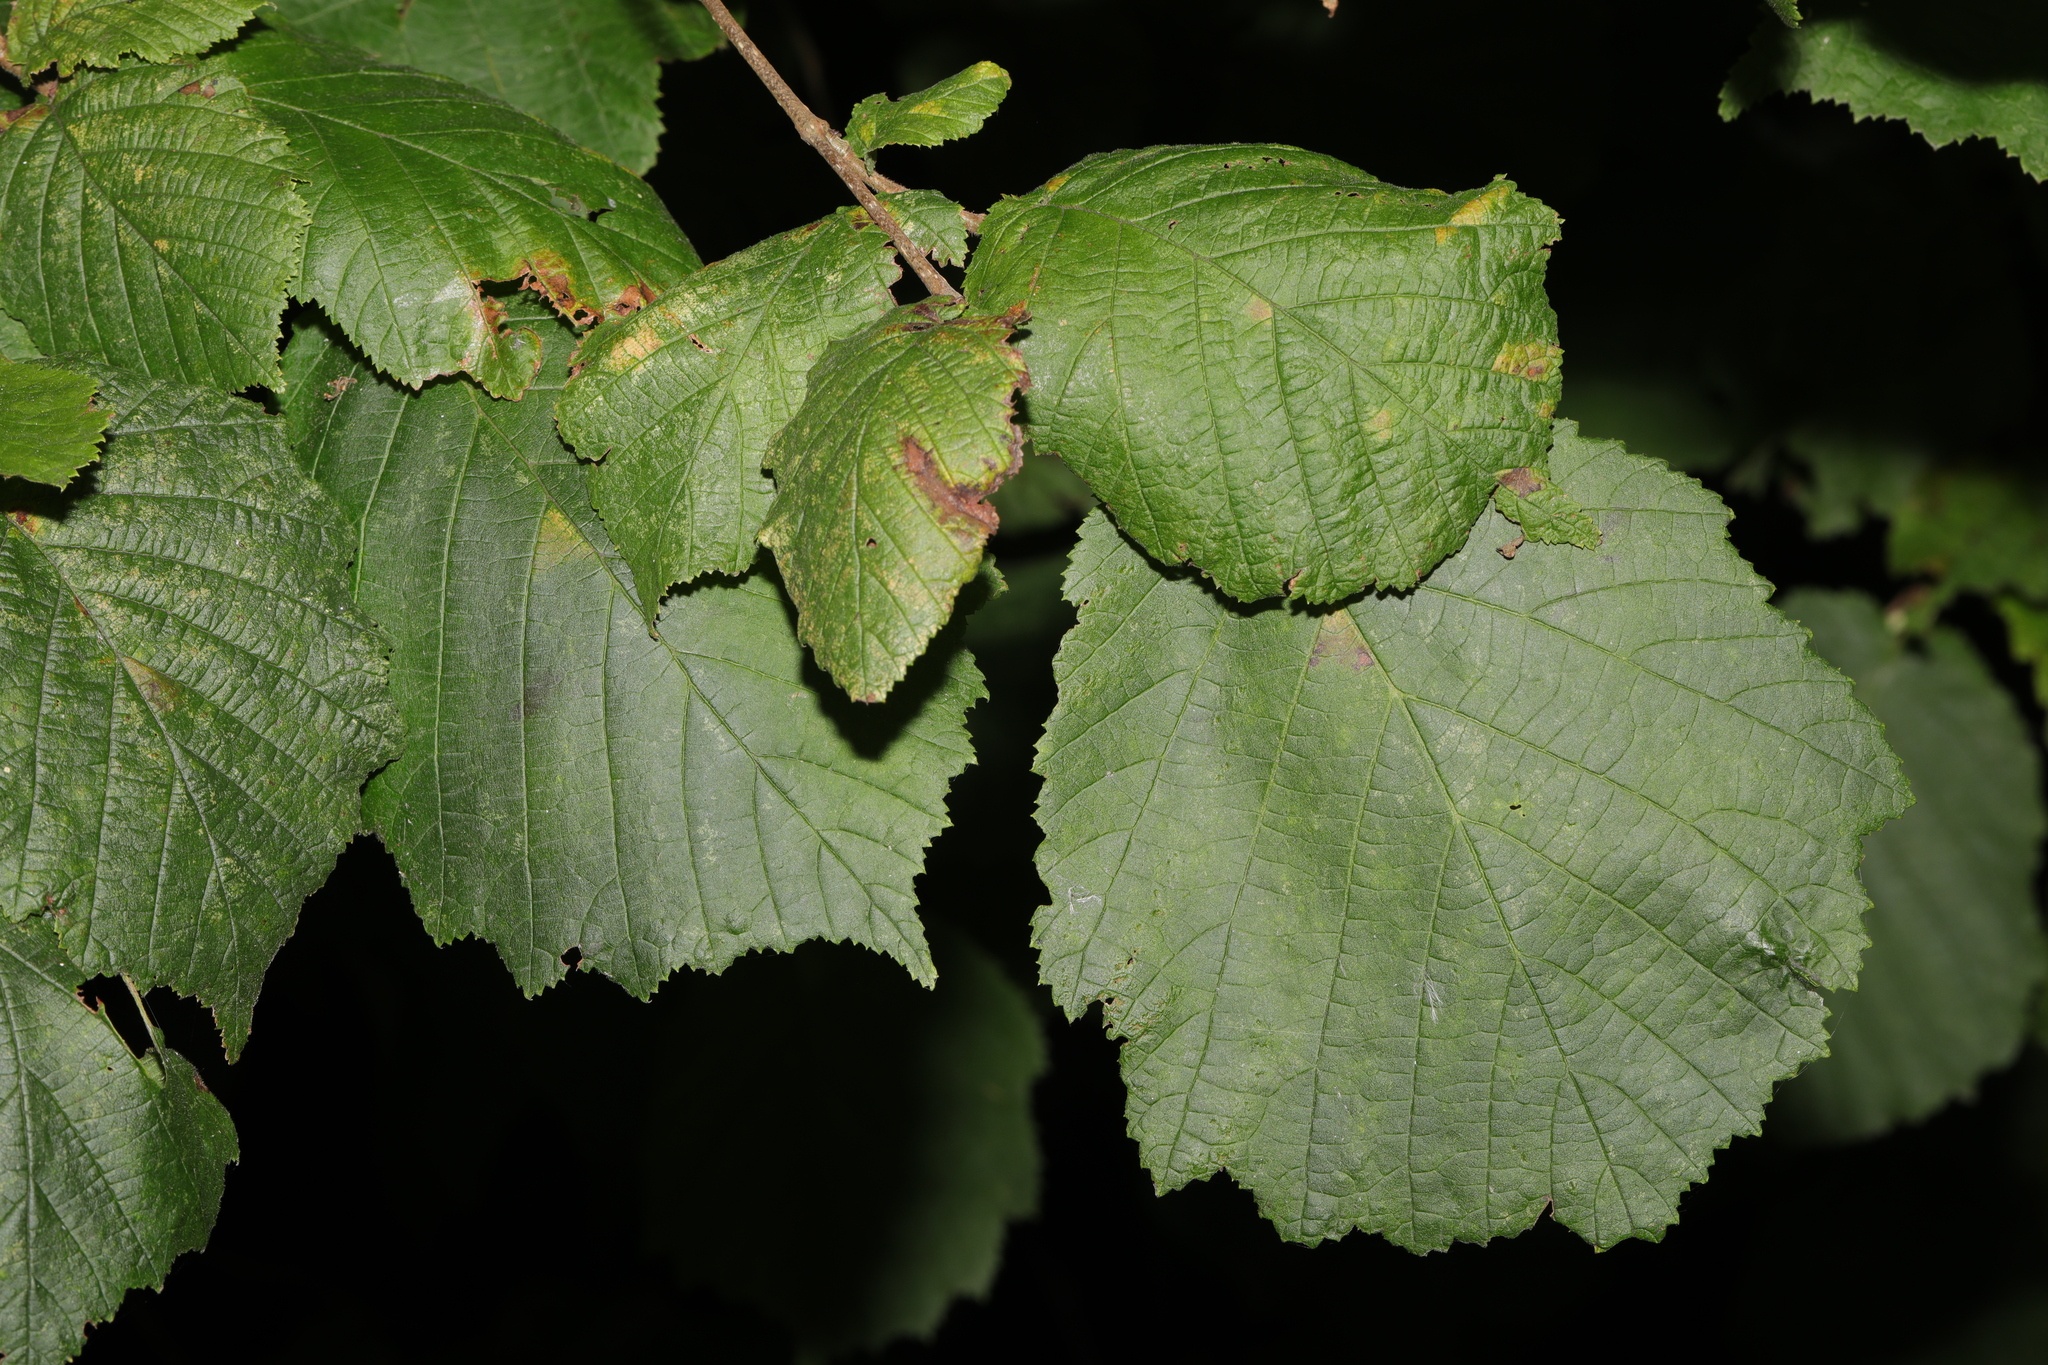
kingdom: Plantae
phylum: Tracheophyta
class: Magnoliopsida
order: Fagales
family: Betulaceae
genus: Corylus
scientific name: Corylus avellana
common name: European hazel
